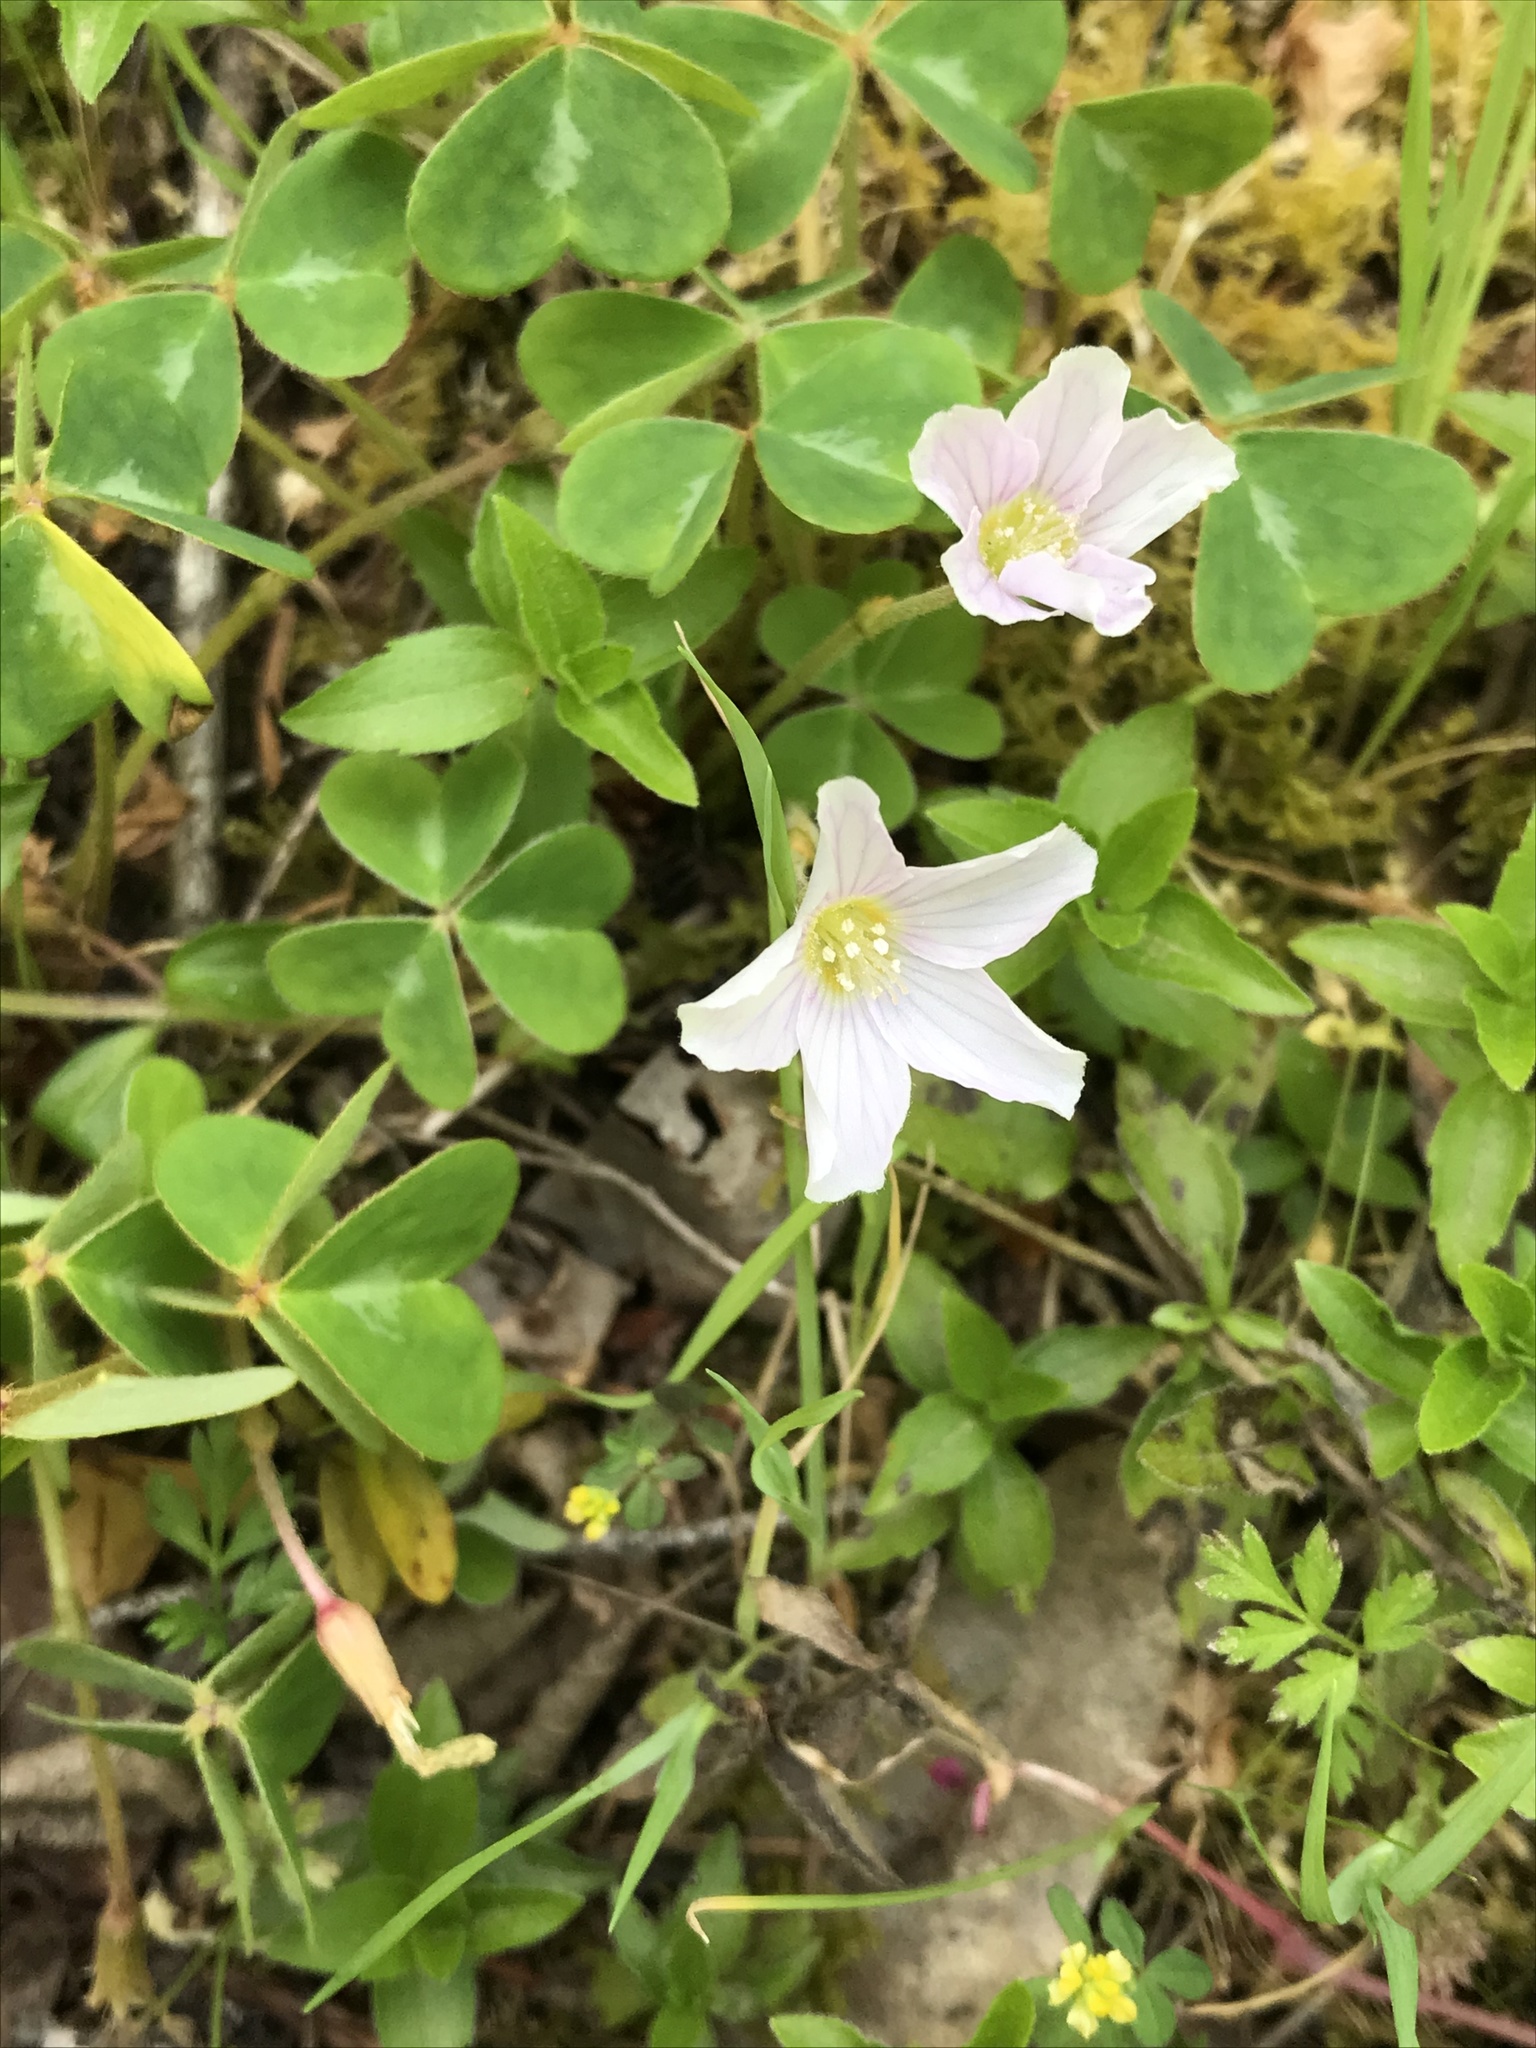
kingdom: Plantae
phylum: Tracheophyta
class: Magnoliopsida
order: Oxalidales
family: Oxalidaceae
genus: Oxalis
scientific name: Oxalis oregana
